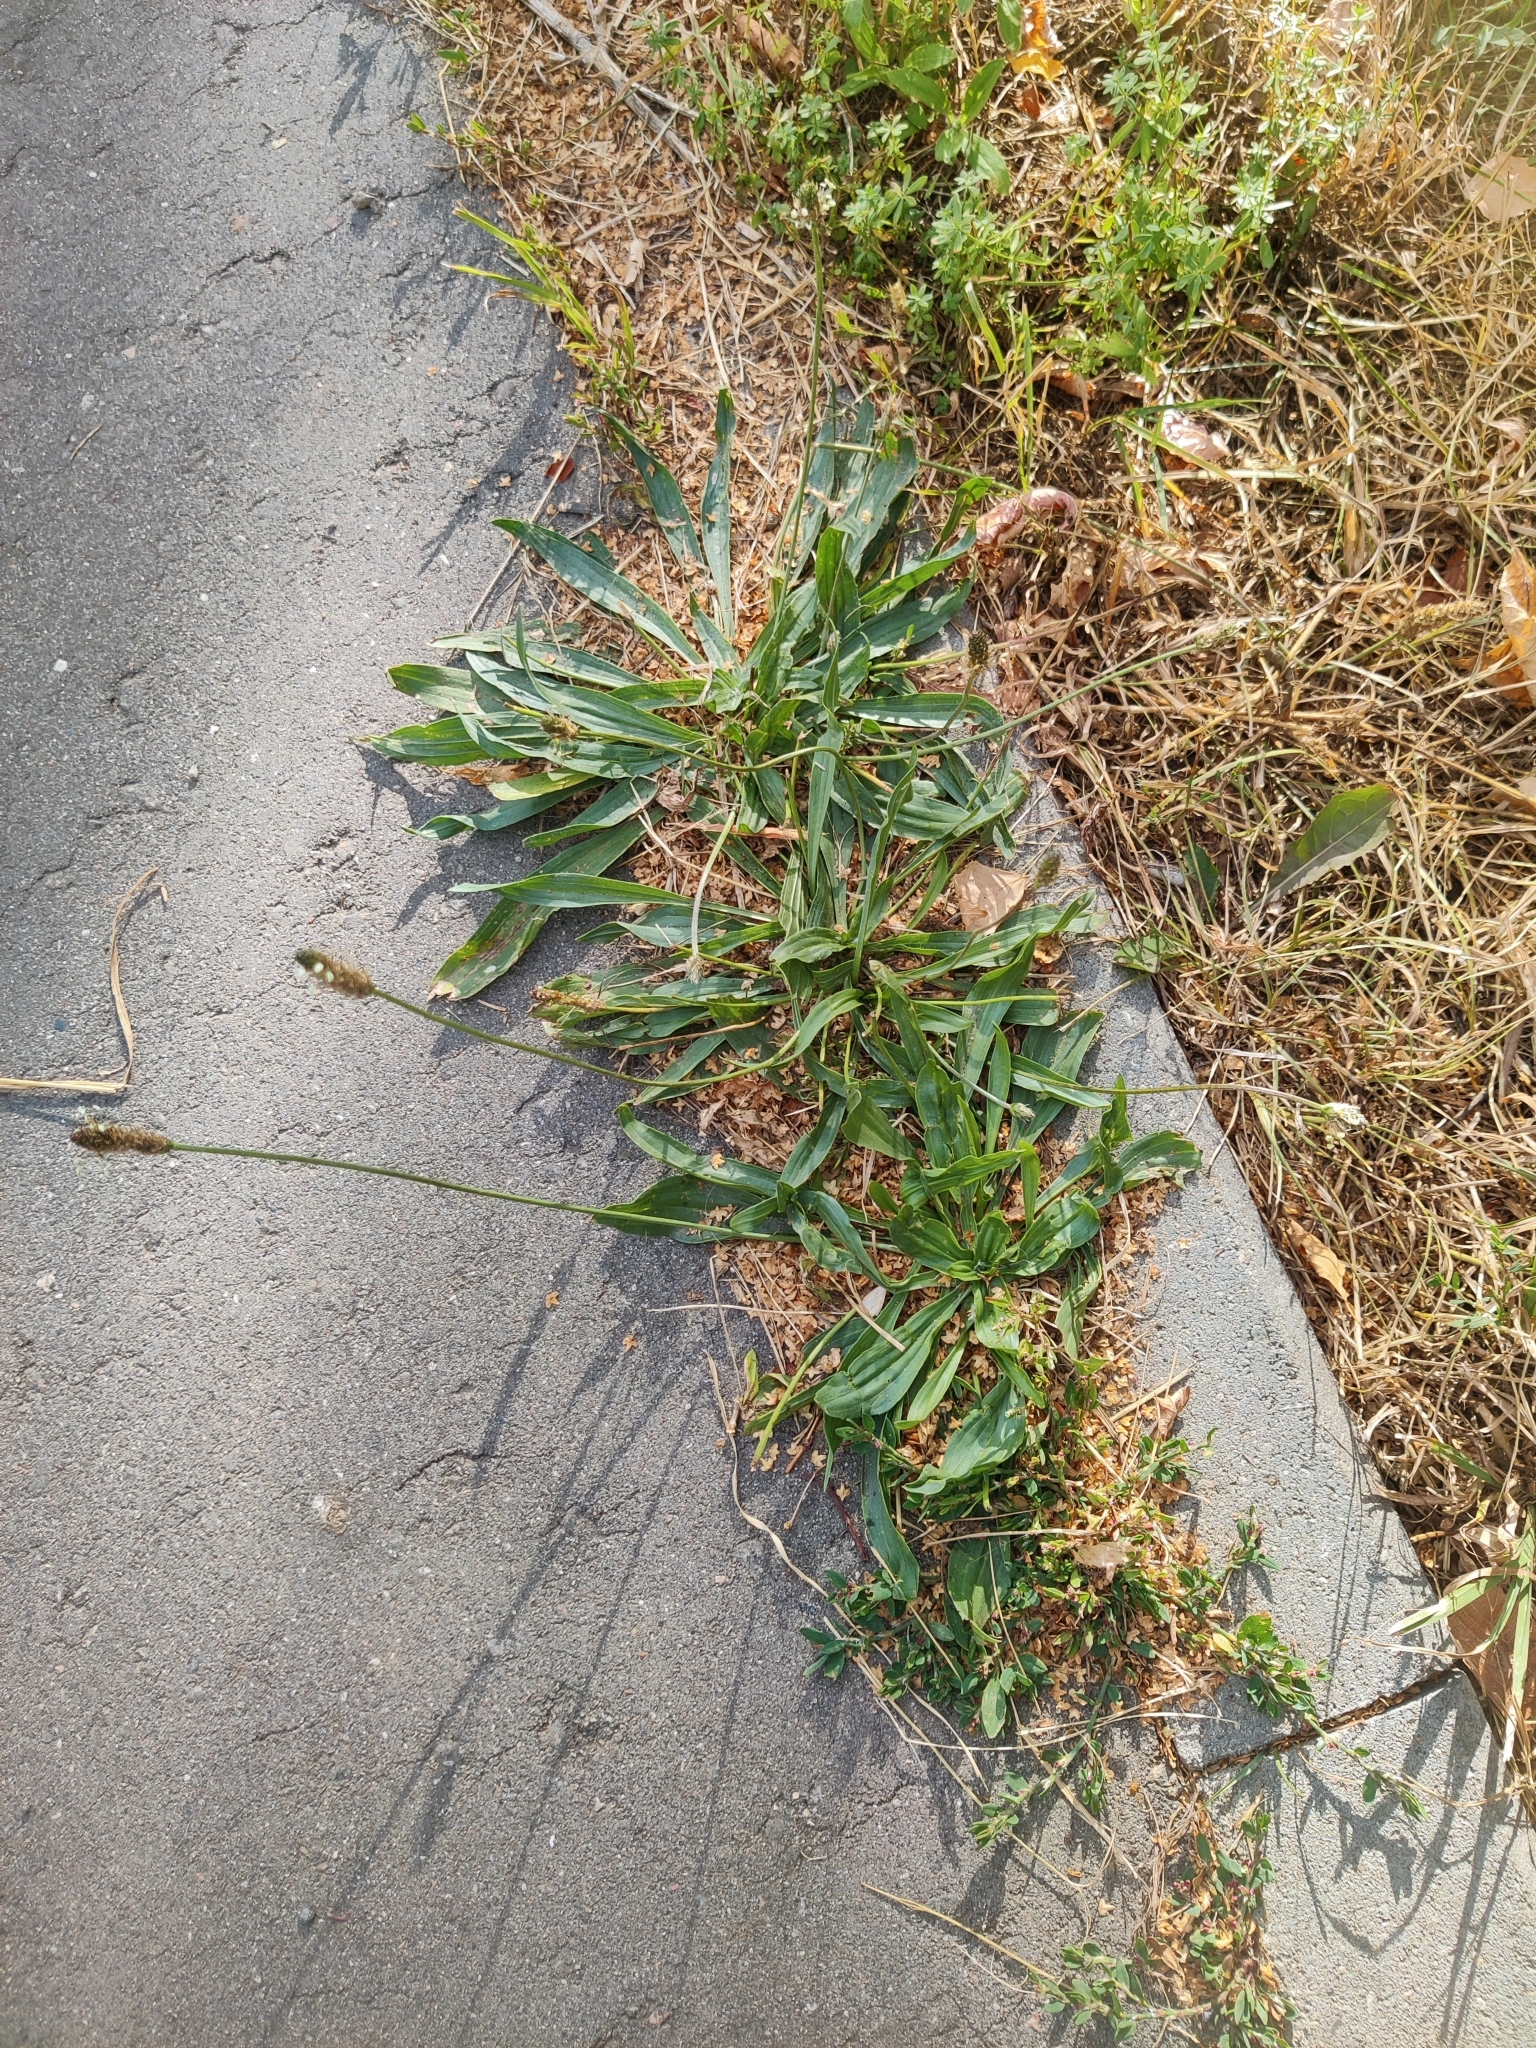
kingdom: Plantae
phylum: Tracheophyta
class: Magnoliopsida
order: Lamiales
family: Plantaginaceae
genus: Plantago
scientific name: Plantago media
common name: Hoary plantain
